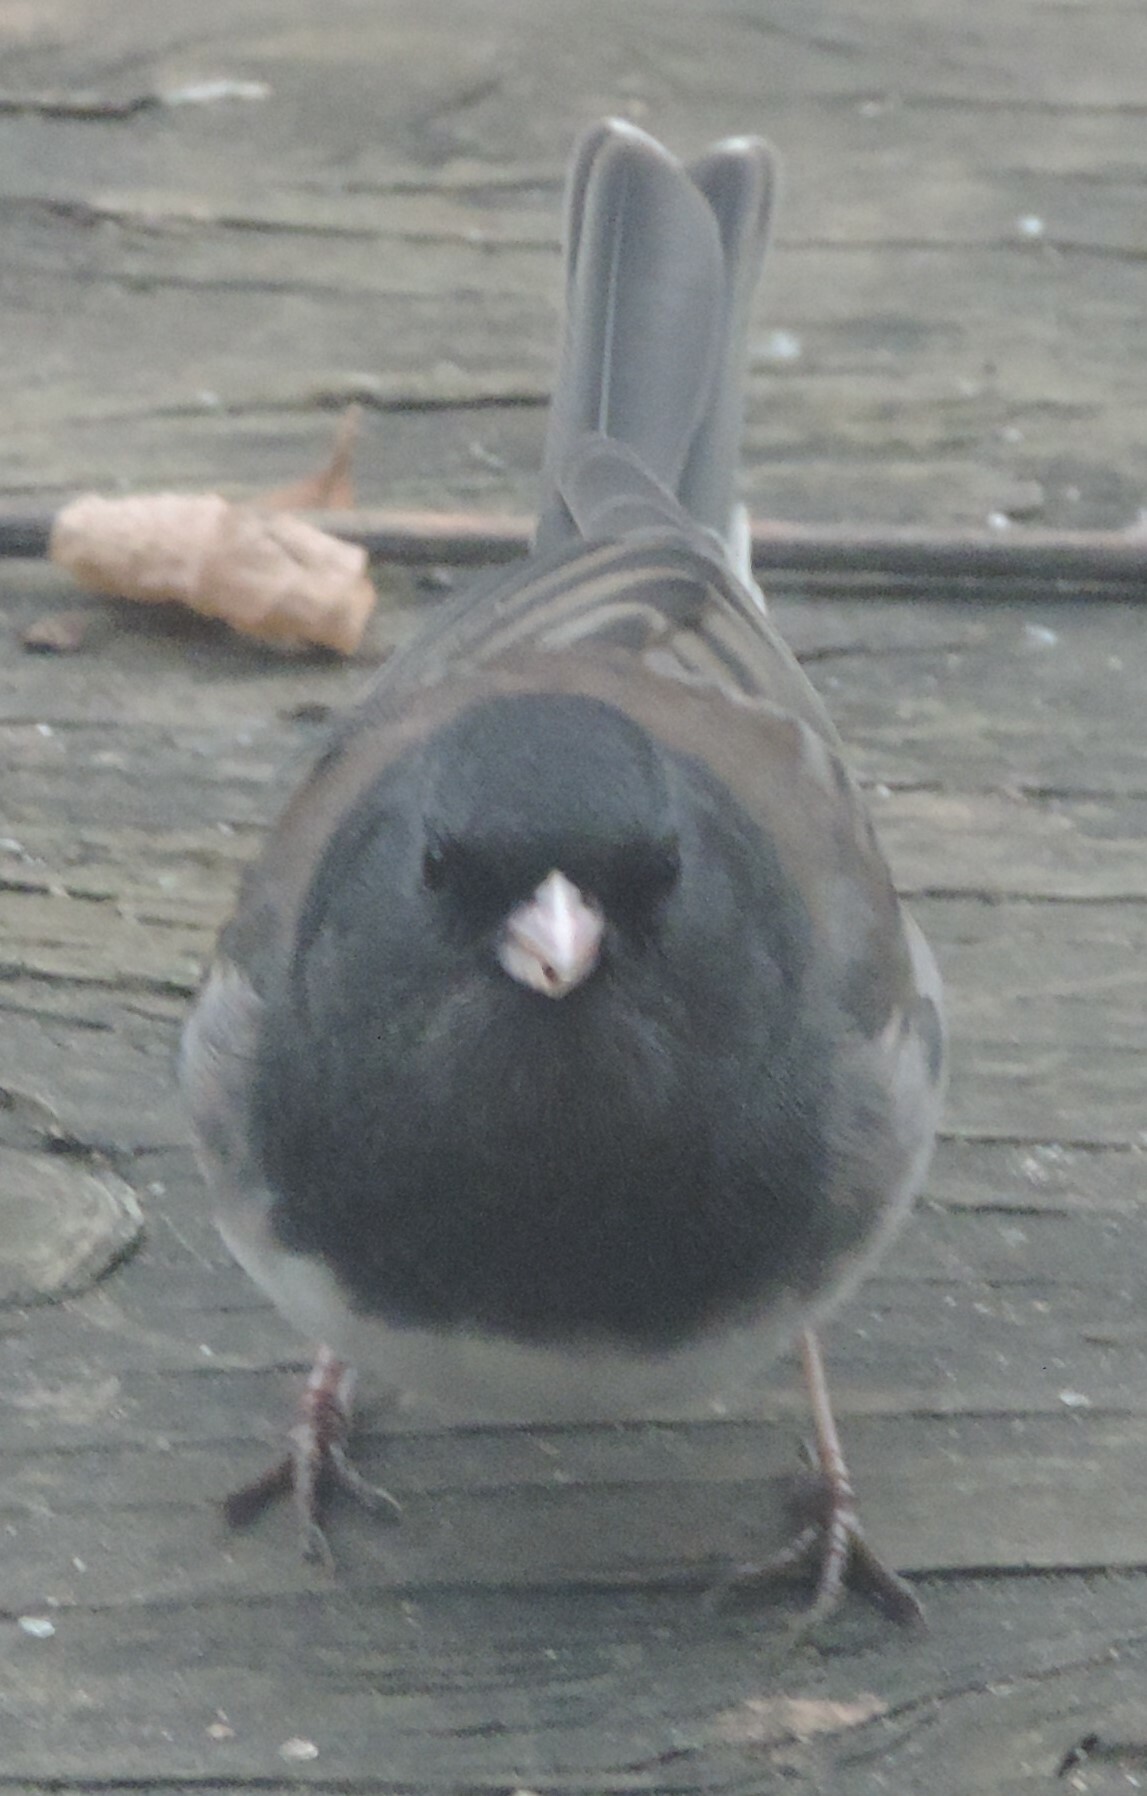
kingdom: Animalia
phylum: Chordata
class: Aves
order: Passeriformes
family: Passerellidae
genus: Junco
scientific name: Junco hyemalis
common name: Dark-eyed junco
